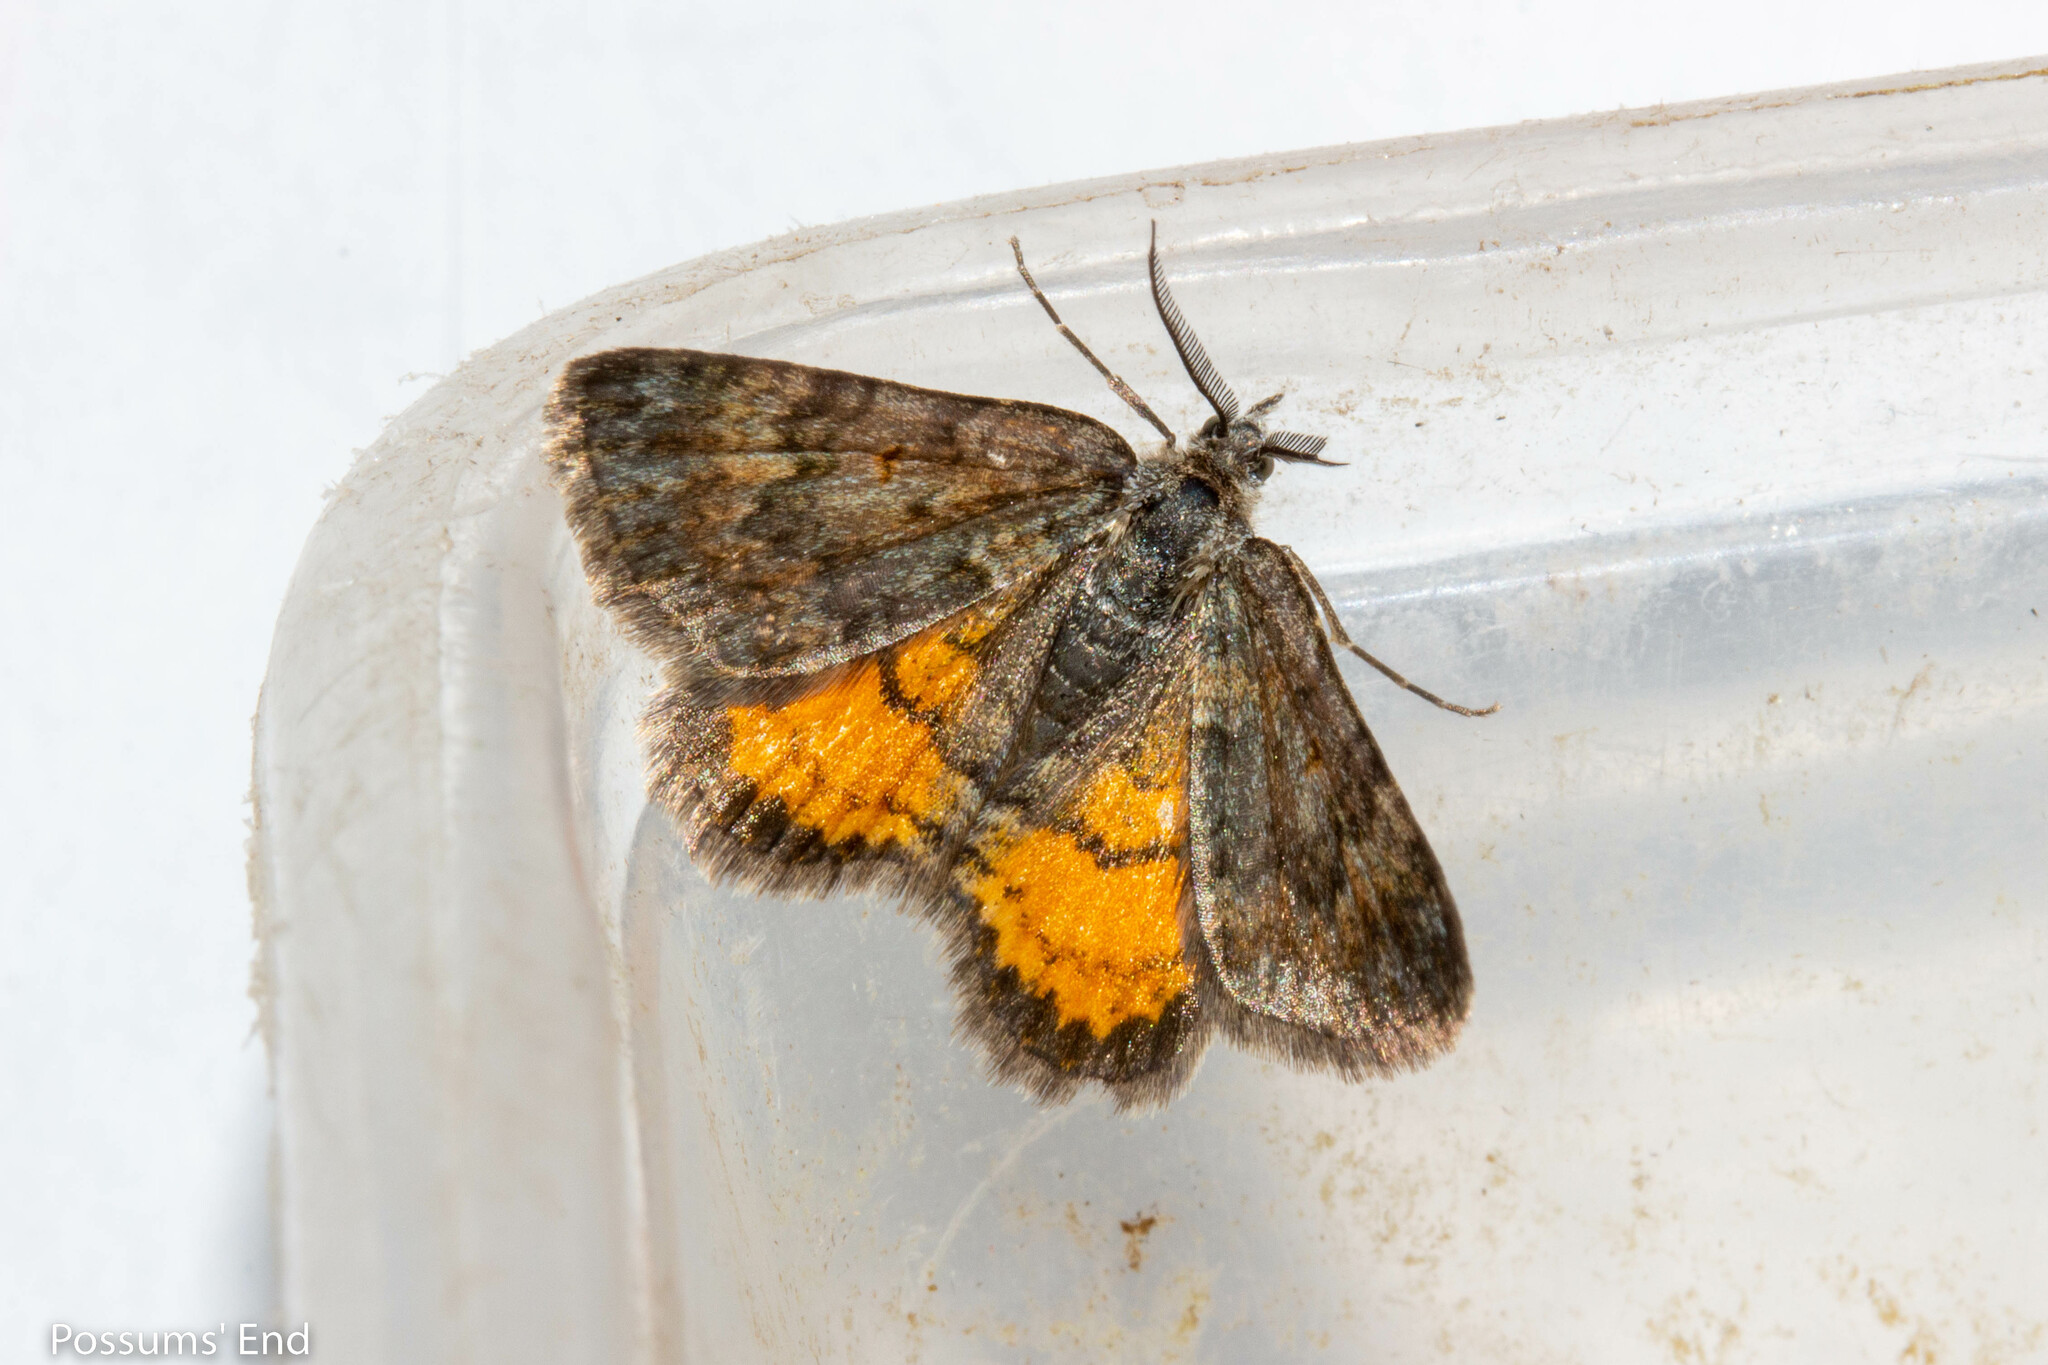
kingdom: Animalia
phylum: Arthropoda
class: Insecta
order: Lepidoptera
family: Geometridae
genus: Paranotoreas
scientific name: Paranotoreas brephosata
